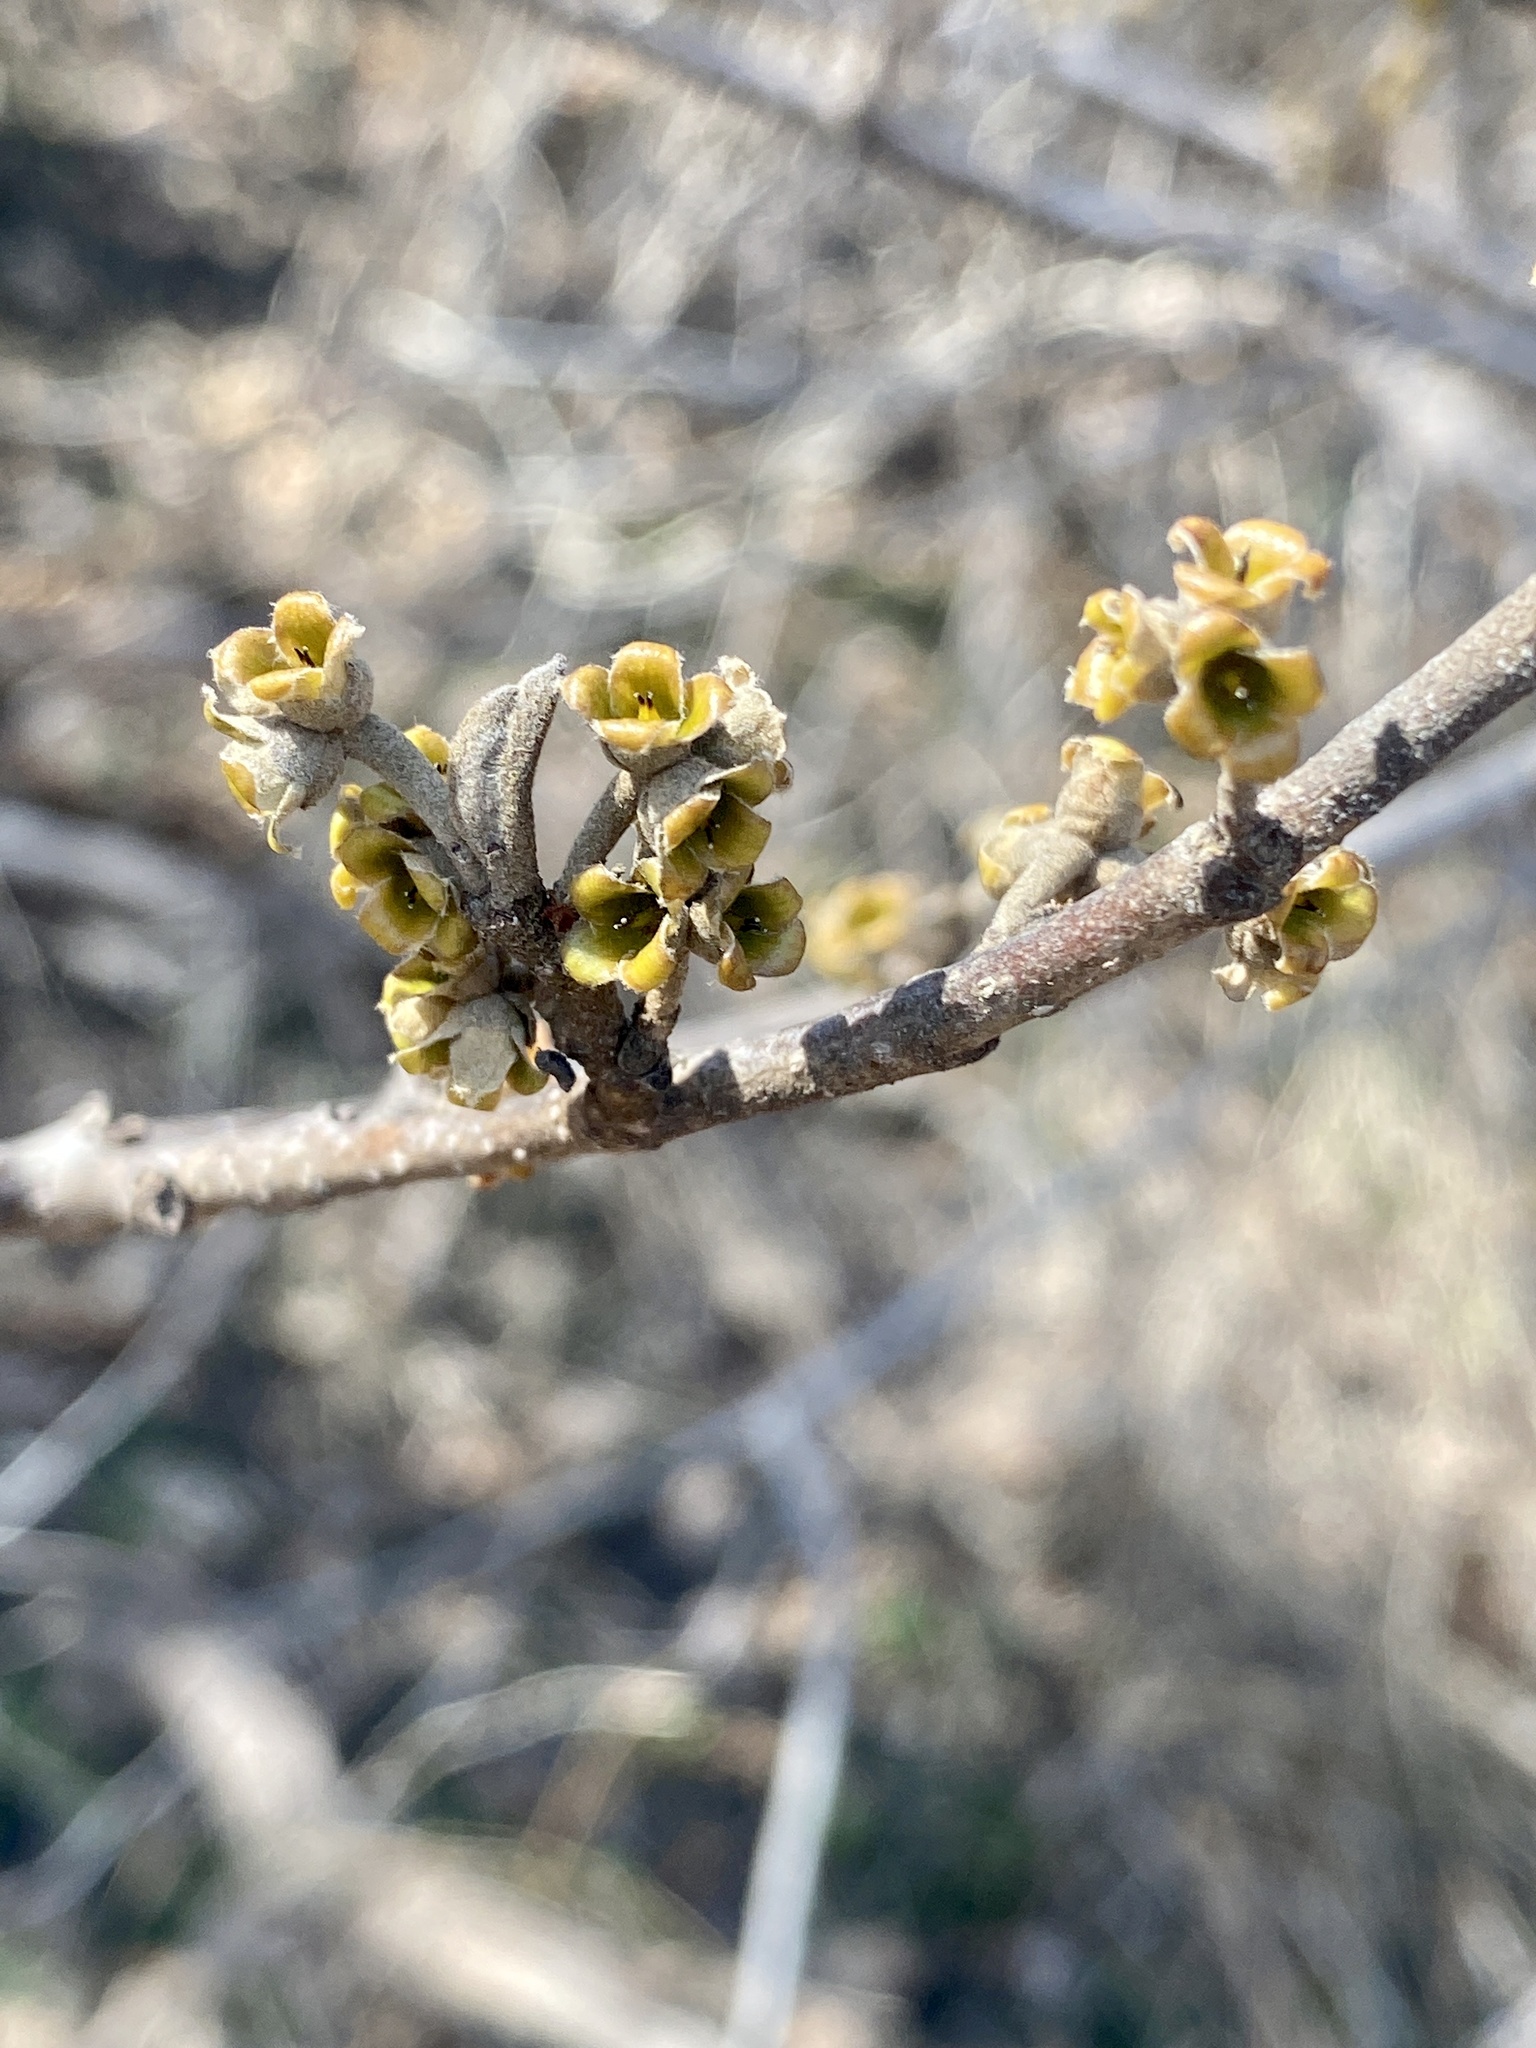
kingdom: Plantae
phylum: Tracheophyta
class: Magnoliopsida
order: Saxifragales
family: Hamamelidaceae
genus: Hamamelis
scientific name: Hamamelis virginiana
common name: Witch-hazel
